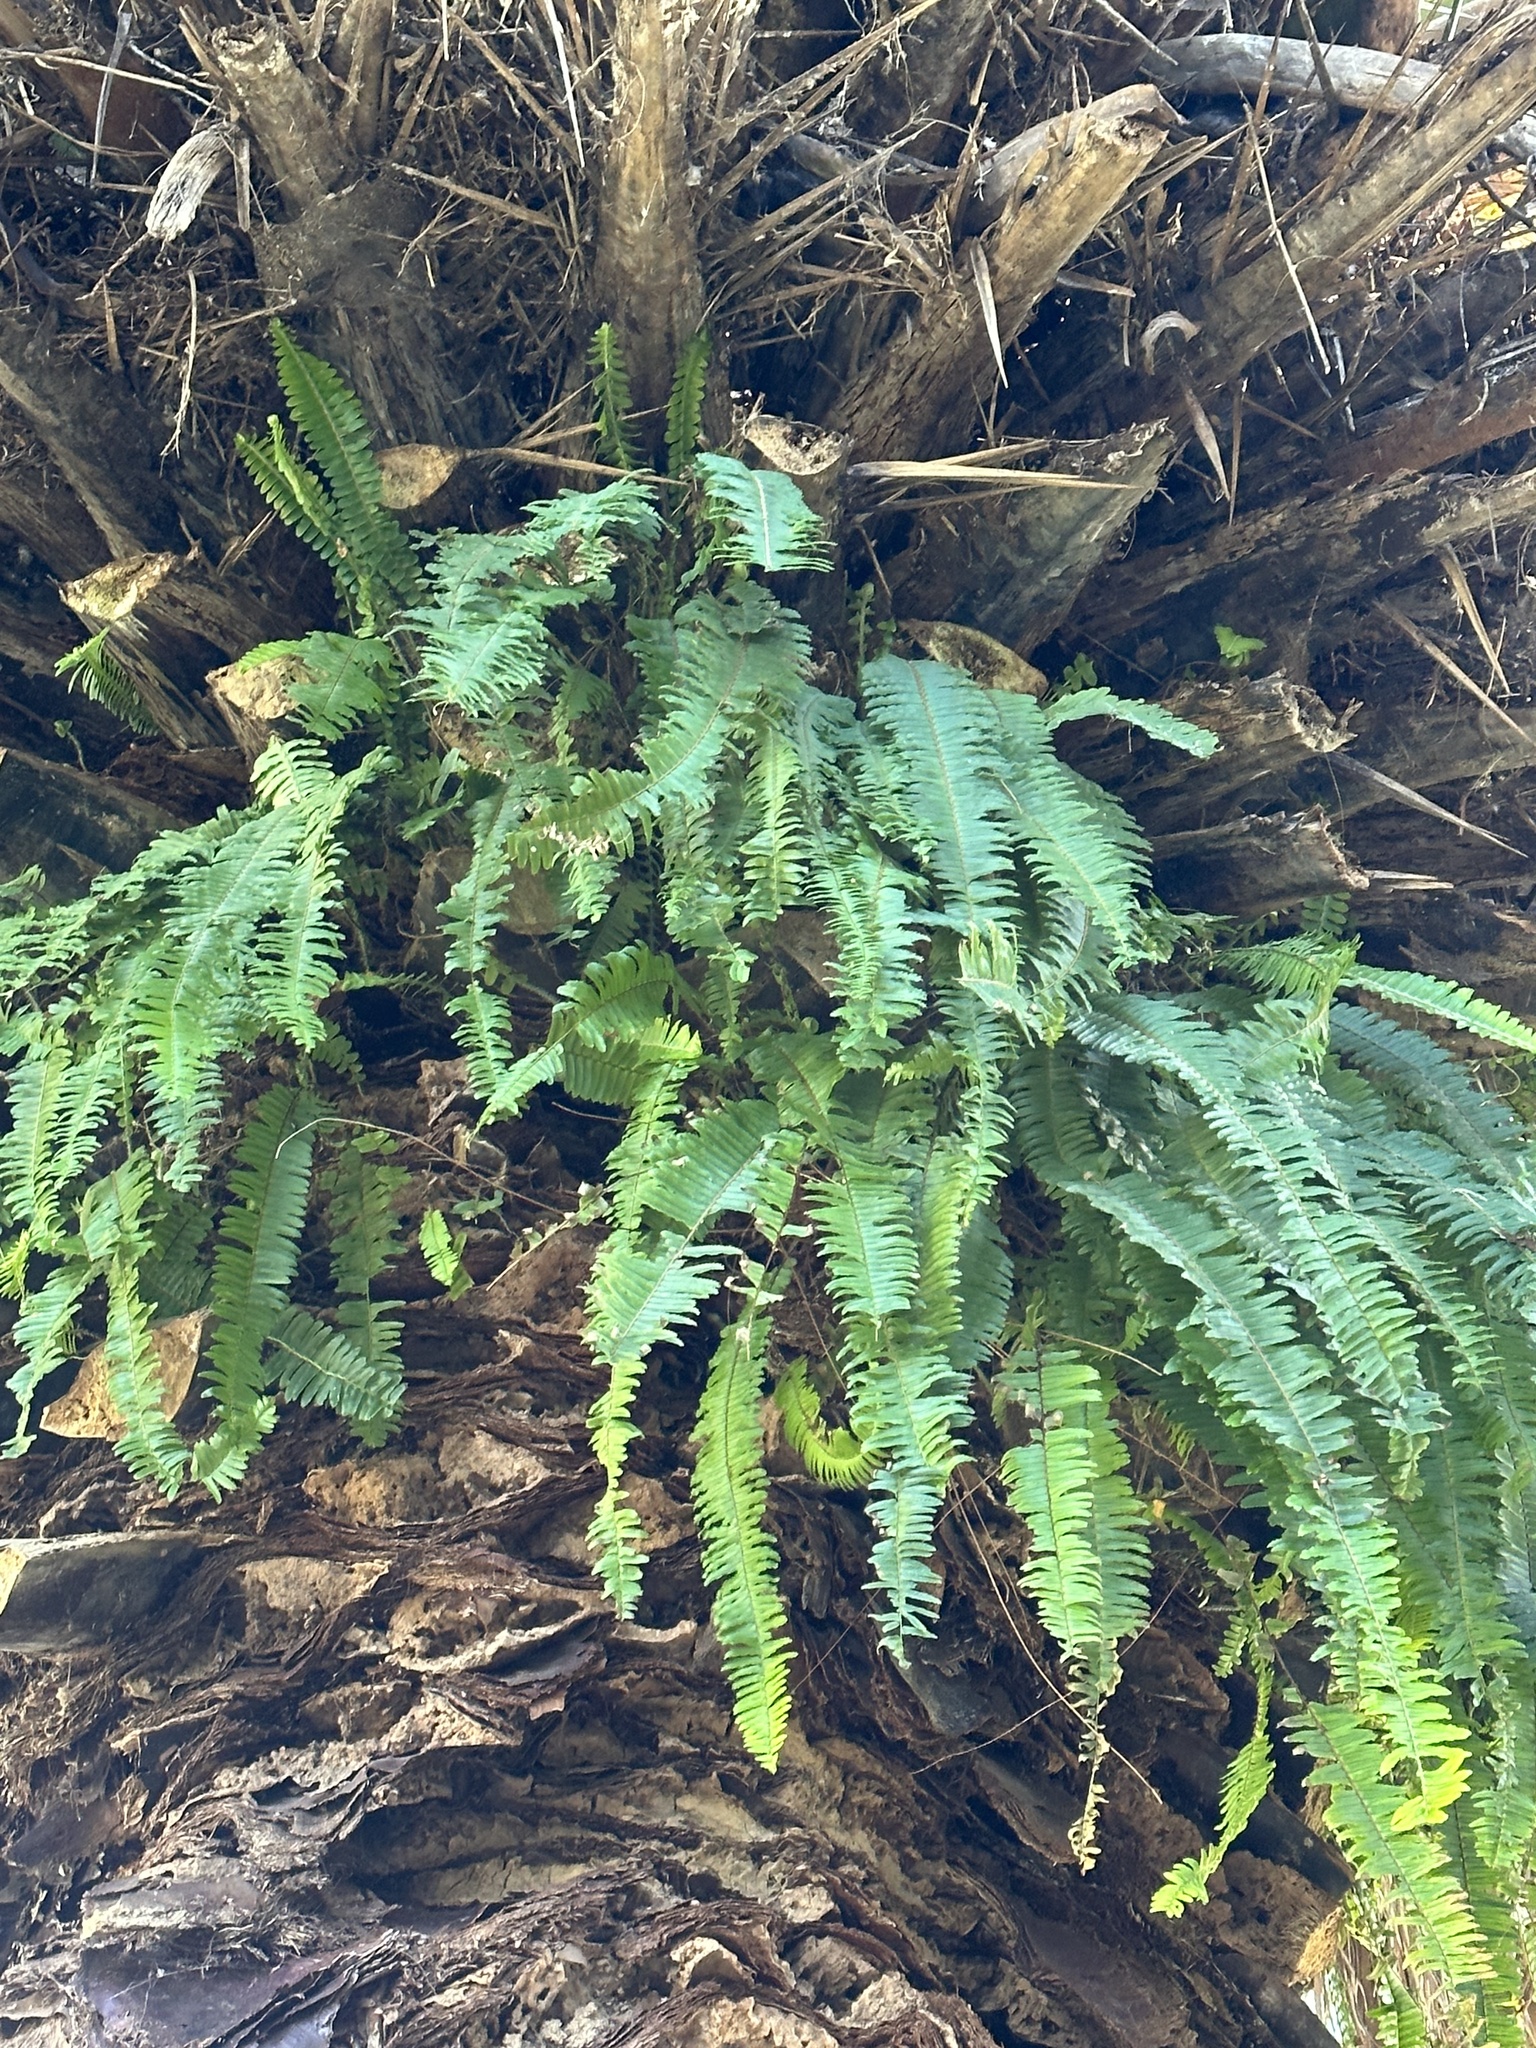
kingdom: Plantae
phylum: Tracheophyta
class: Polypodiopsida
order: Polypodiales
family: Nephrolepidaceae
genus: Nephrolepis
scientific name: Nephrolepis cordifolia
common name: Narrow swordfern
